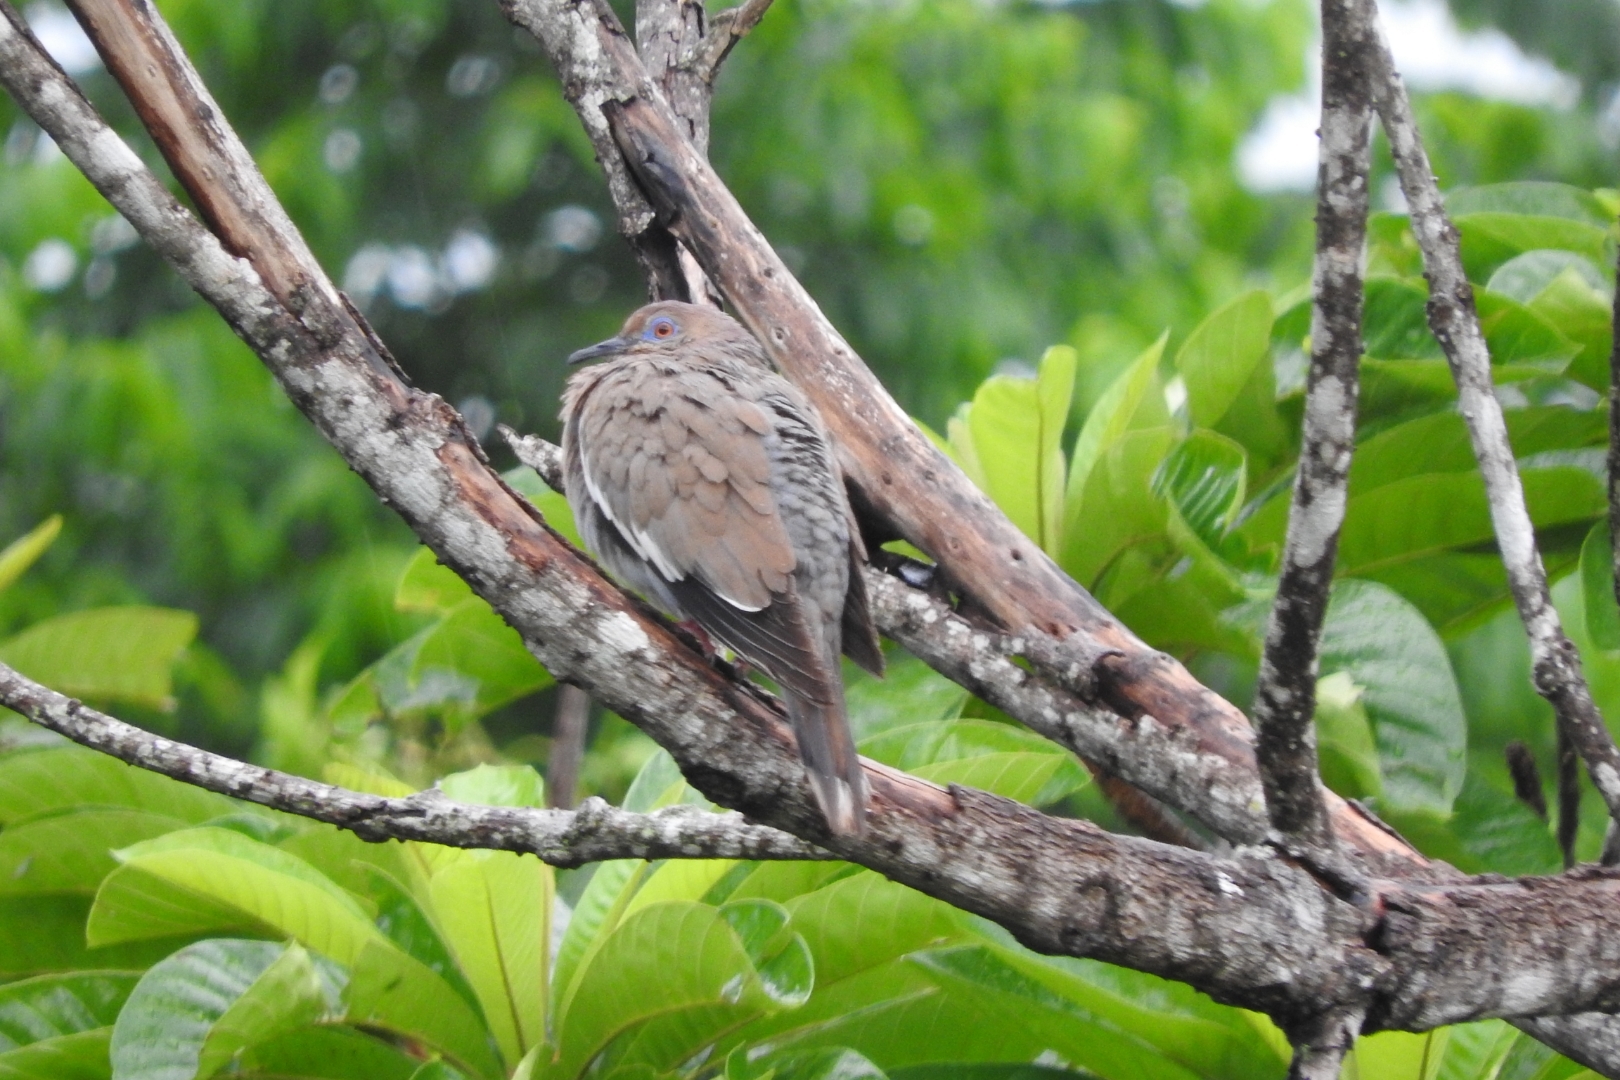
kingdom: Animalia
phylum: Chordata
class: Aves
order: Columbiformes
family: Columbidae
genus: Zenaida
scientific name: Zenaida asiatica
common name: White-winged dove
